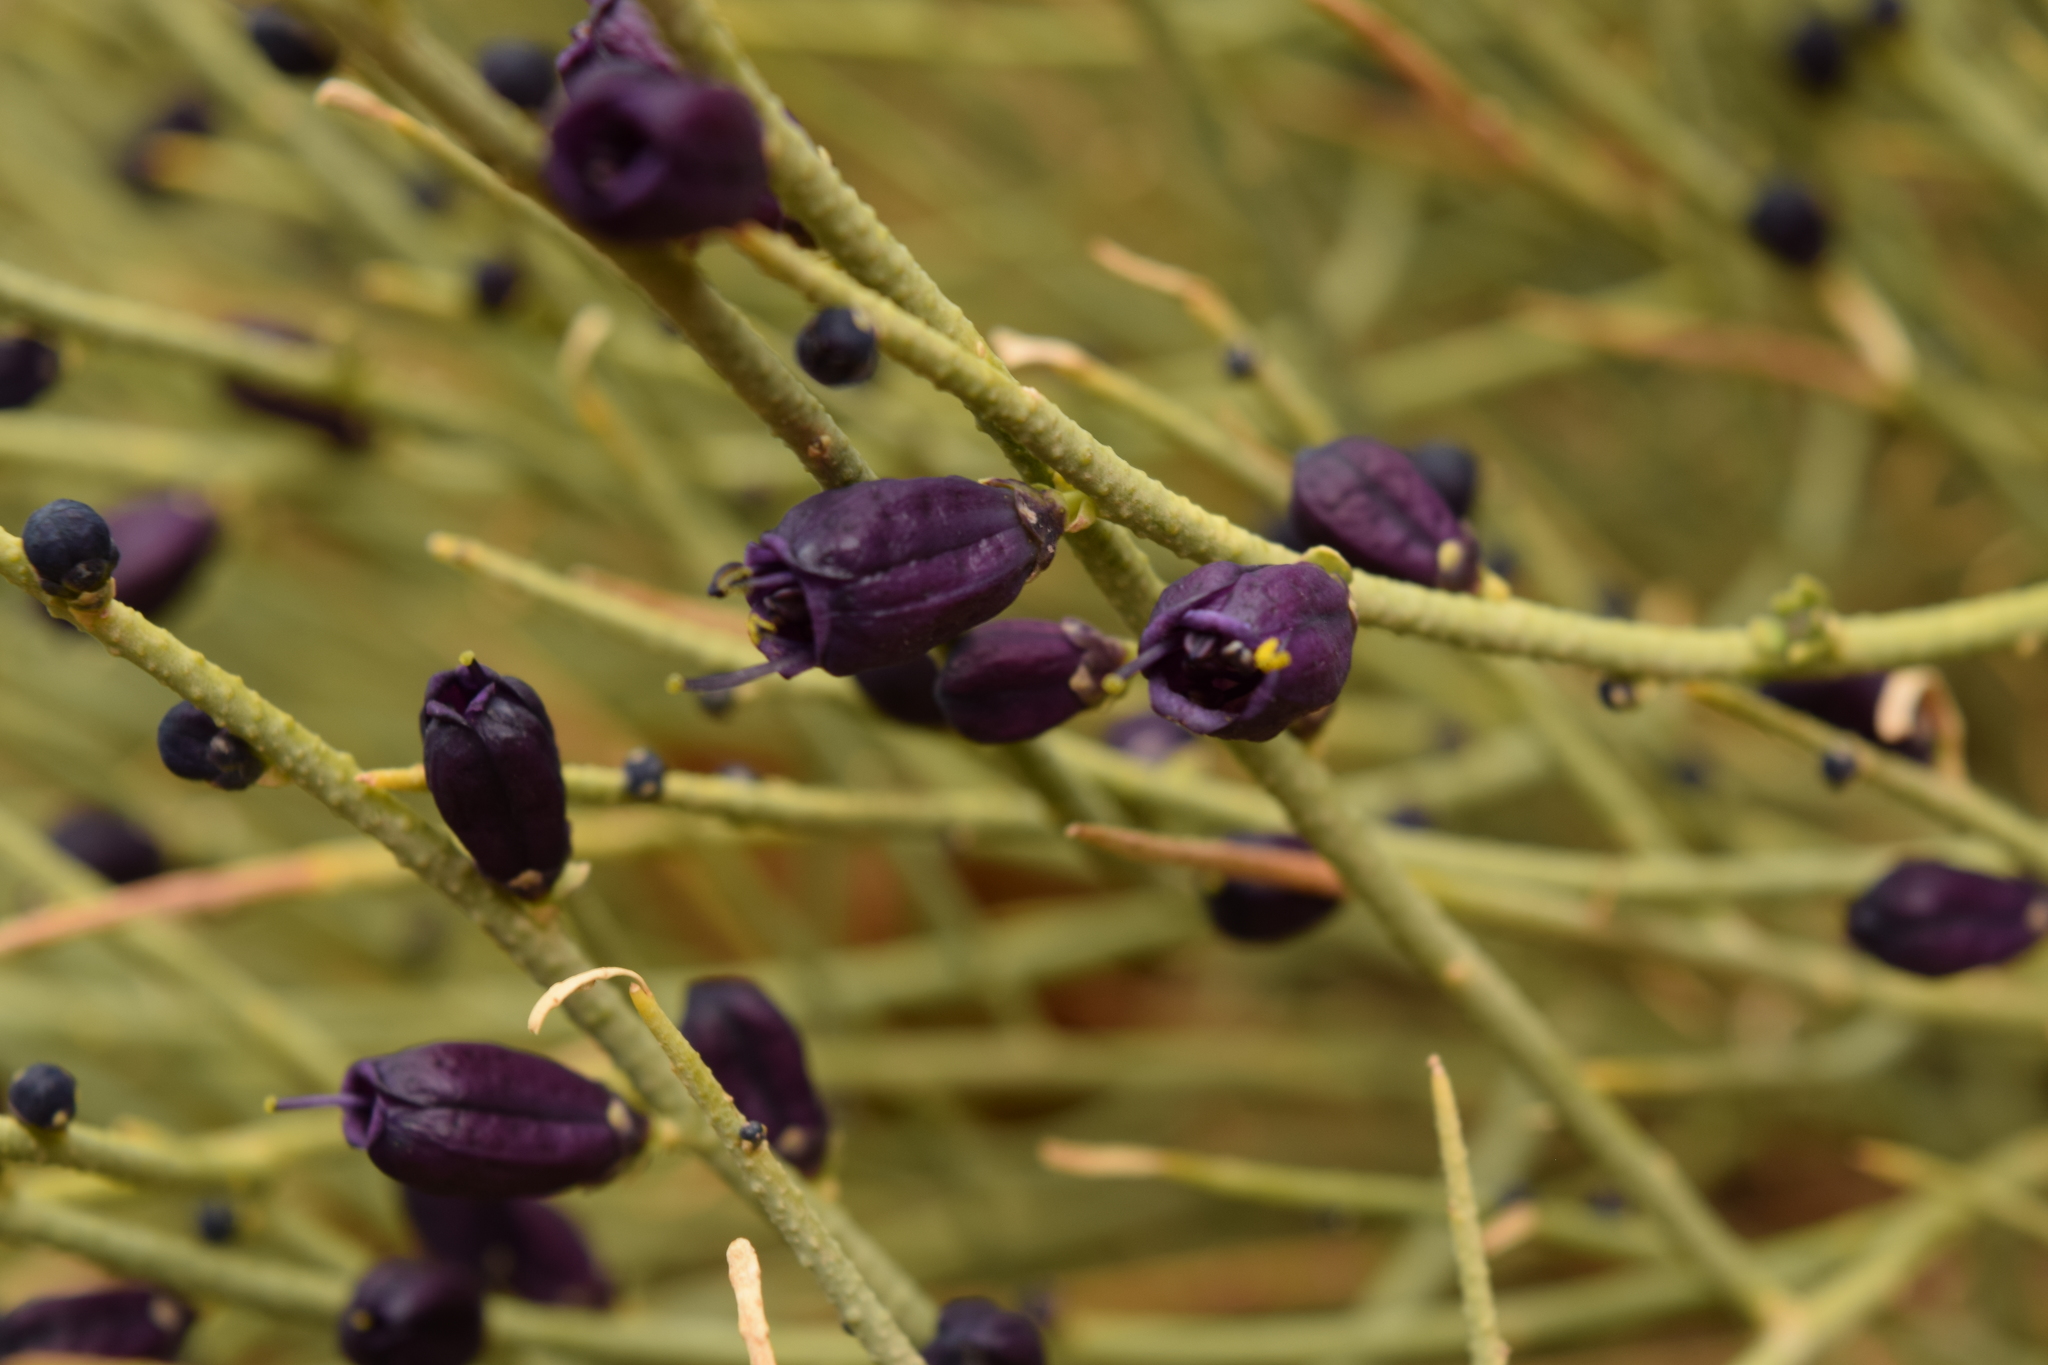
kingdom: Plantae
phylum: Tracheophyta
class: Magnoliopsida
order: Sapindales
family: Rutaceae
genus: Thamnosma
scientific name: Thamnosma montana
